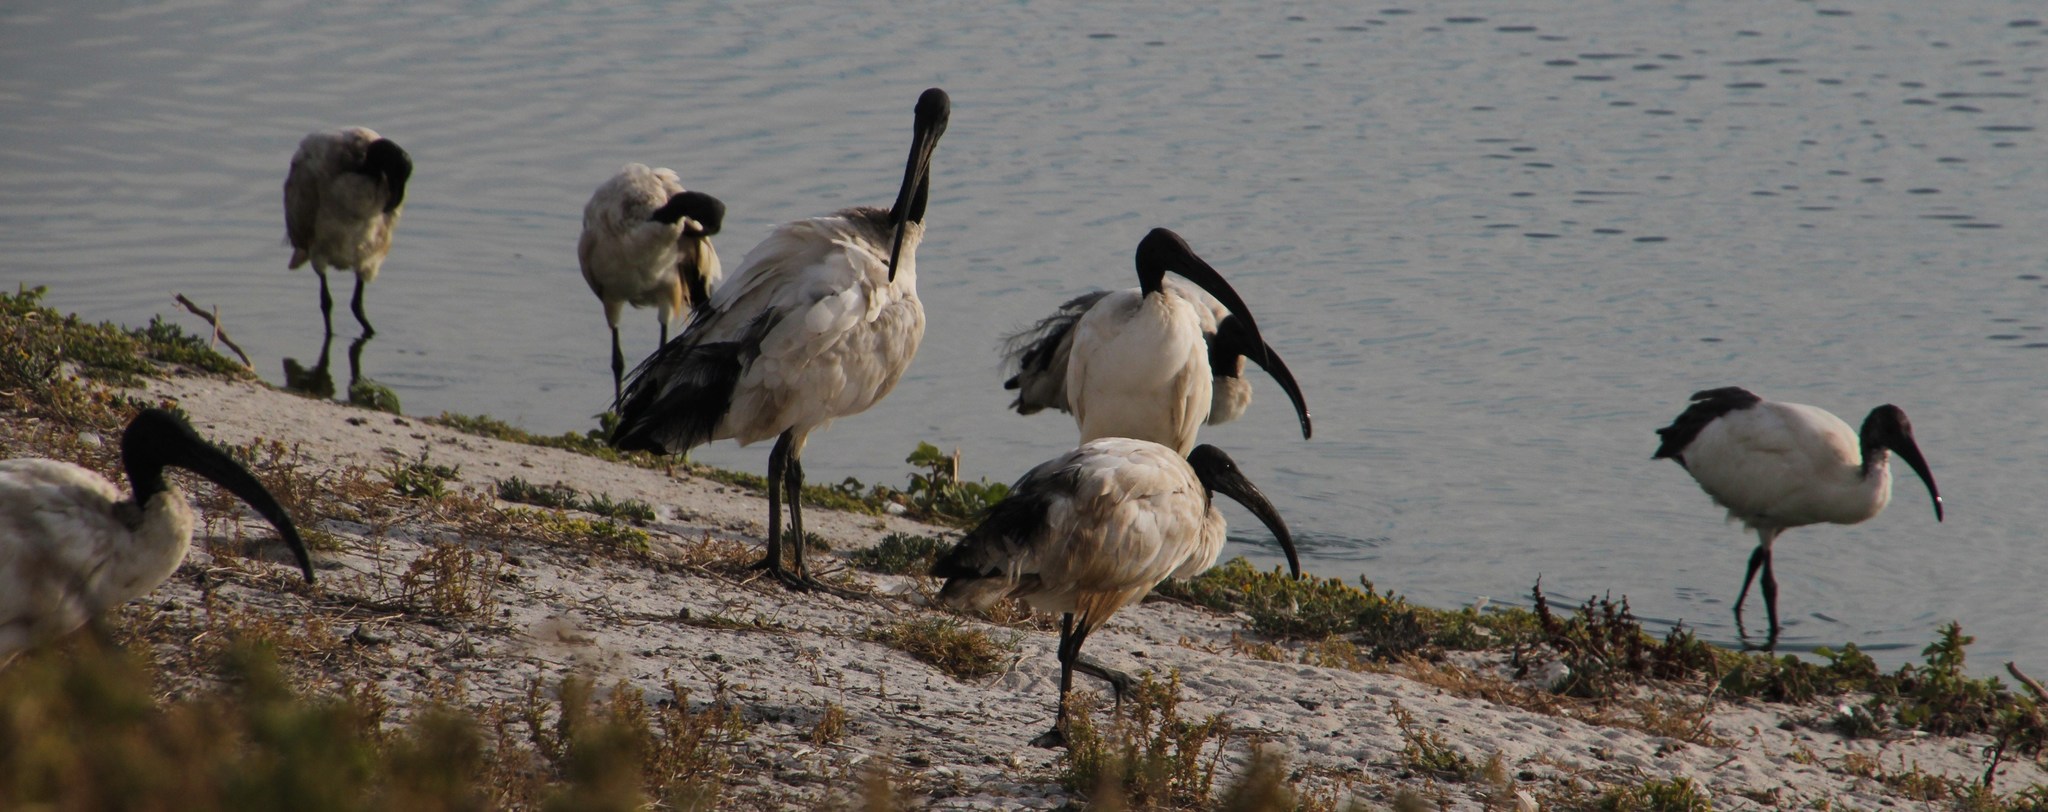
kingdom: Animalia
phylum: Chordata
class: Aves
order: Pelecaniformes
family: Threskiornithidae
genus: Threskiornis
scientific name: Threskiornis aethiopicus
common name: Sacred ibis
